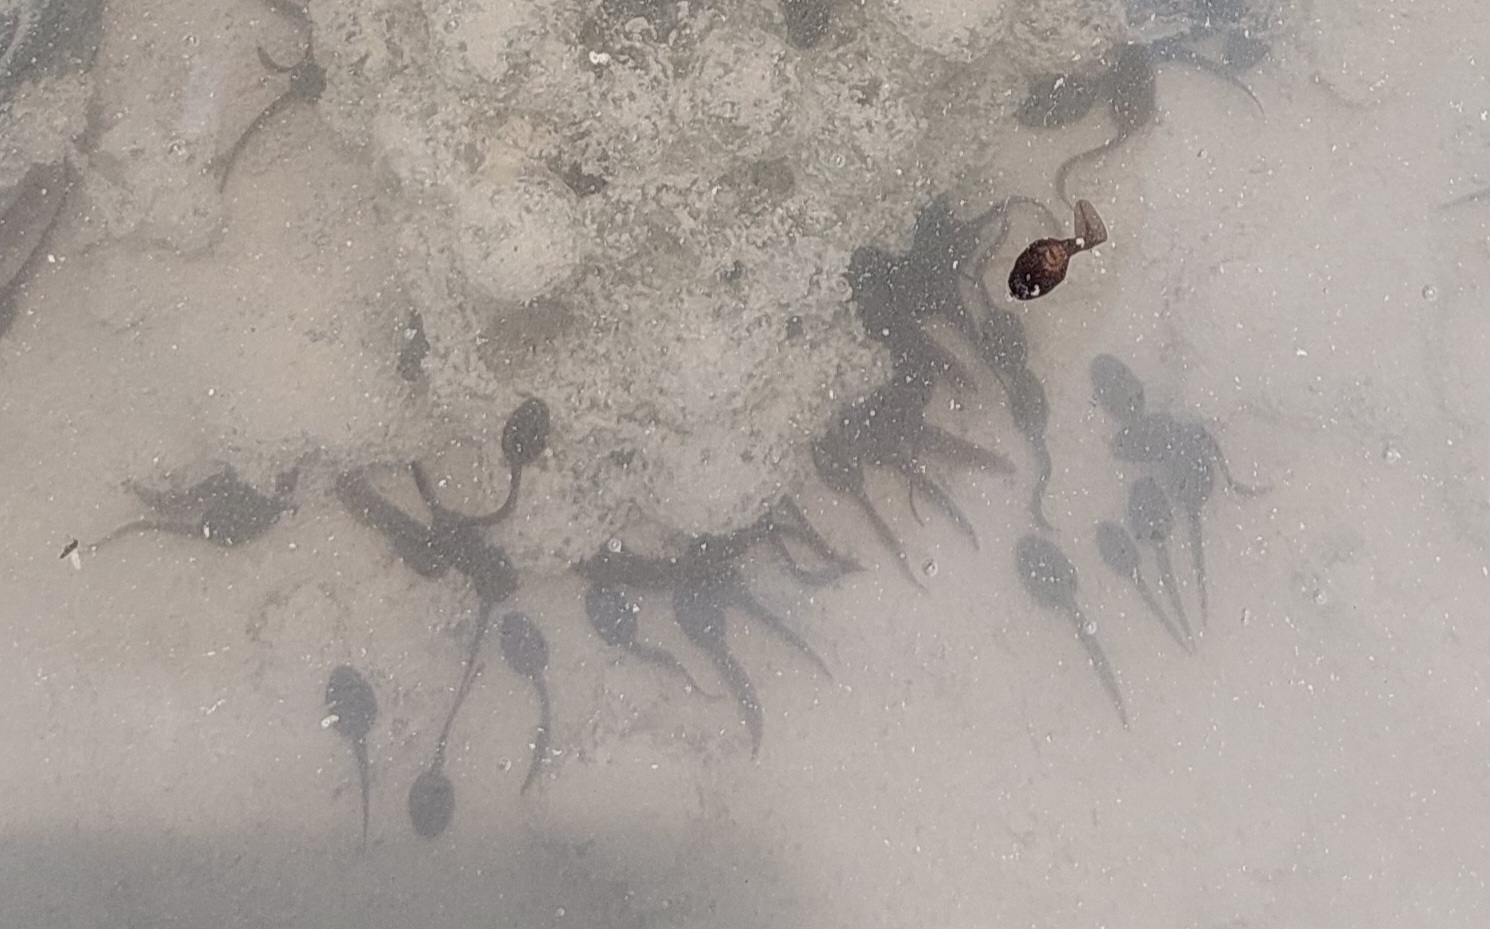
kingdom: Animalia
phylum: Chordata
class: Amphibia
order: Anura
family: Ranidae
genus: Rana
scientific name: Rana temporaria
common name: Common frog
